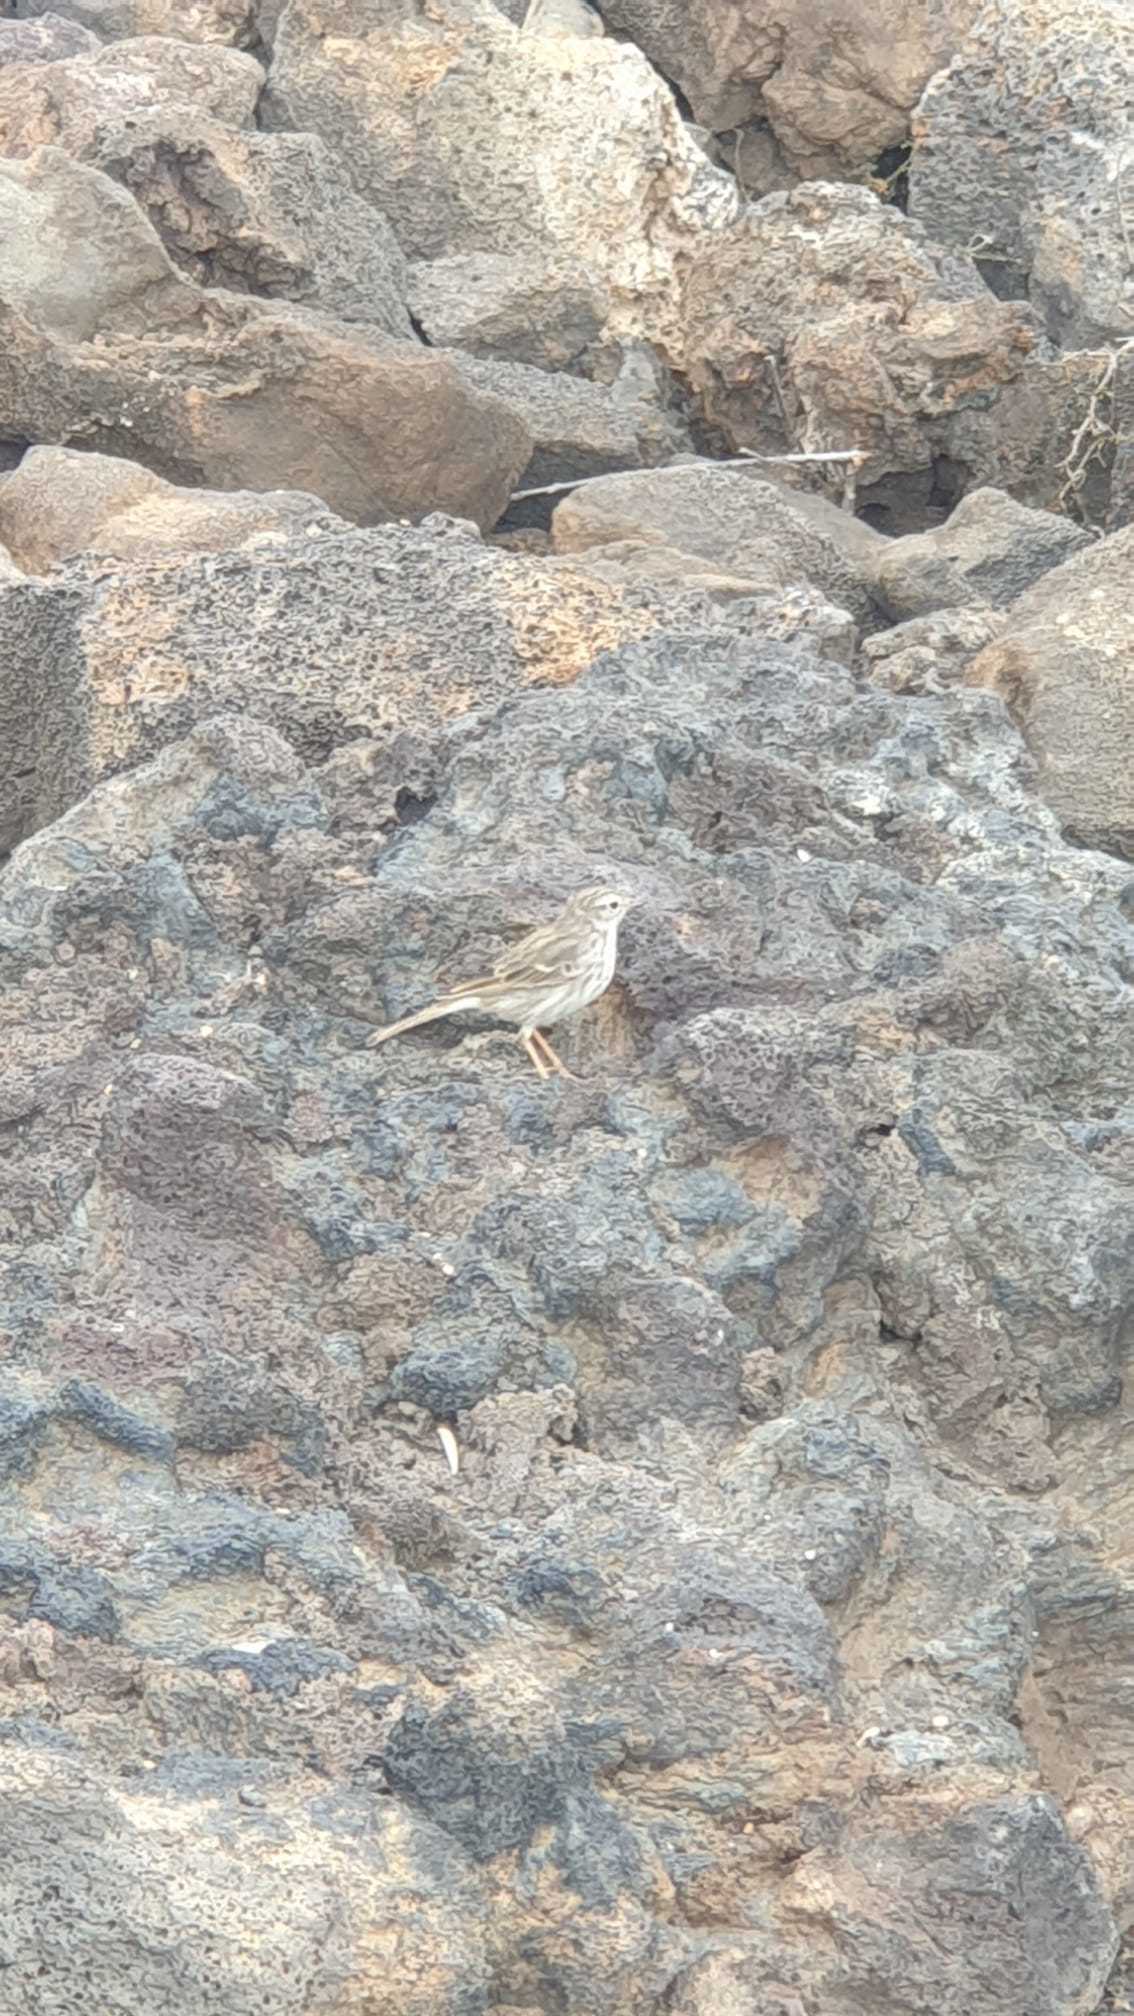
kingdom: Animalia
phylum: Chordata
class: Aves
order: Passeriformes
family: Motacillidae
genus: Anthus
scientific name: Anthus berthelotii
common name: Berthelot's pipit
